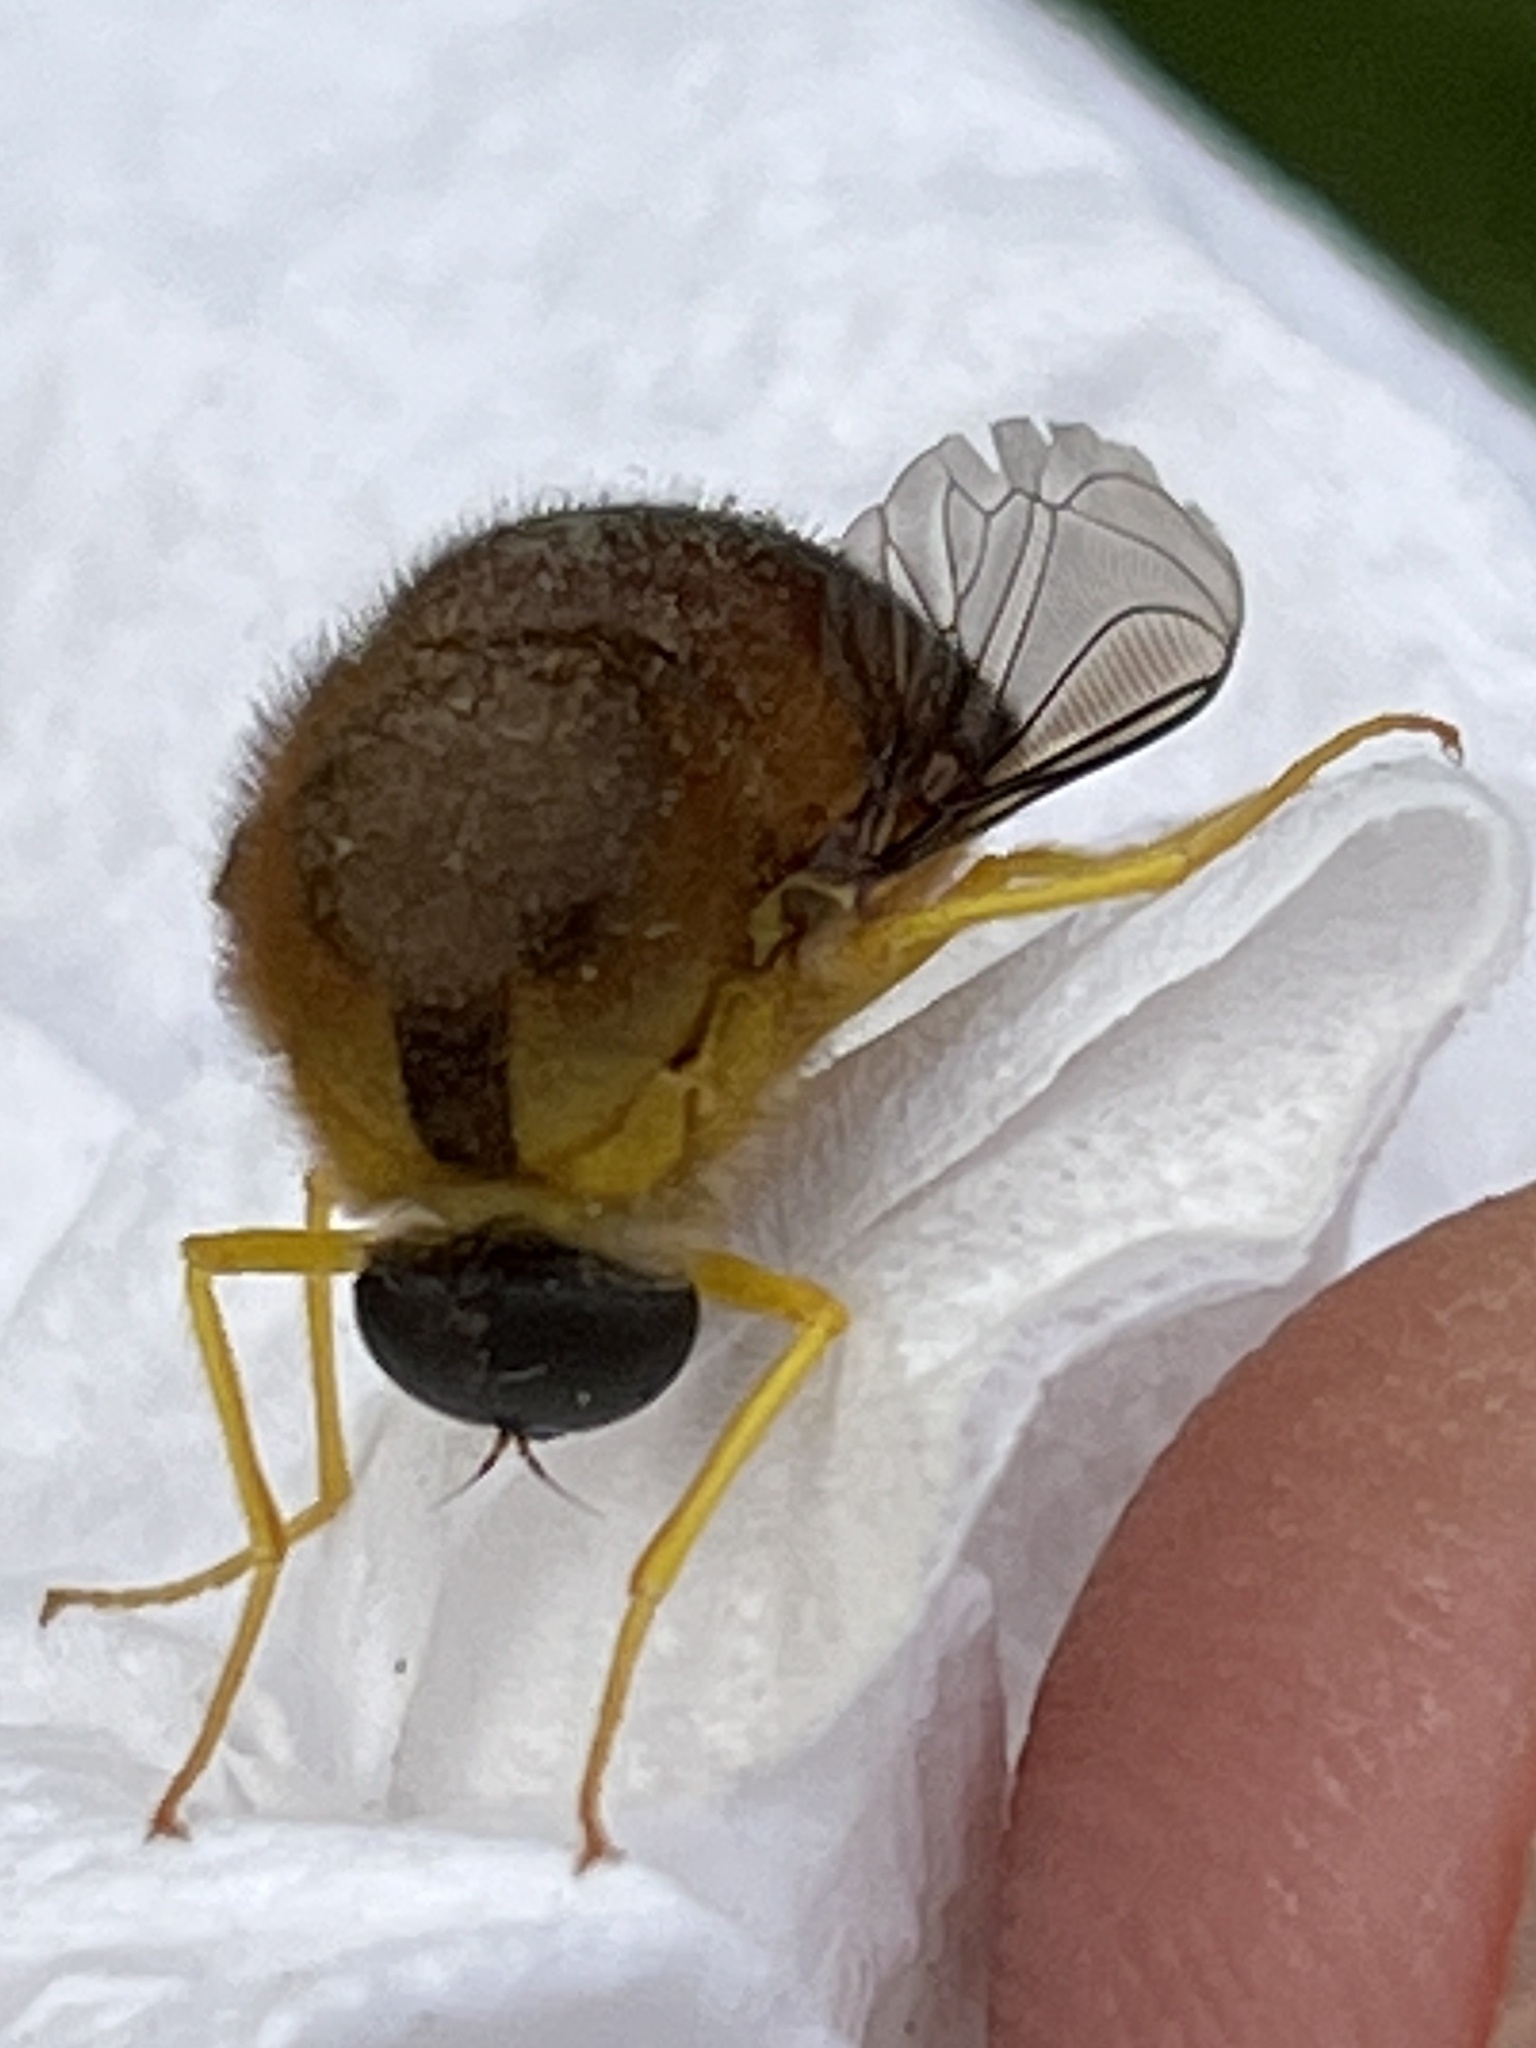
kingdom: Animalia
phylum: Arthropoda
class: Insecta
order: Diptera
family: Acroceridae
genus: Psilodera
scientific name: Psilodera valida
